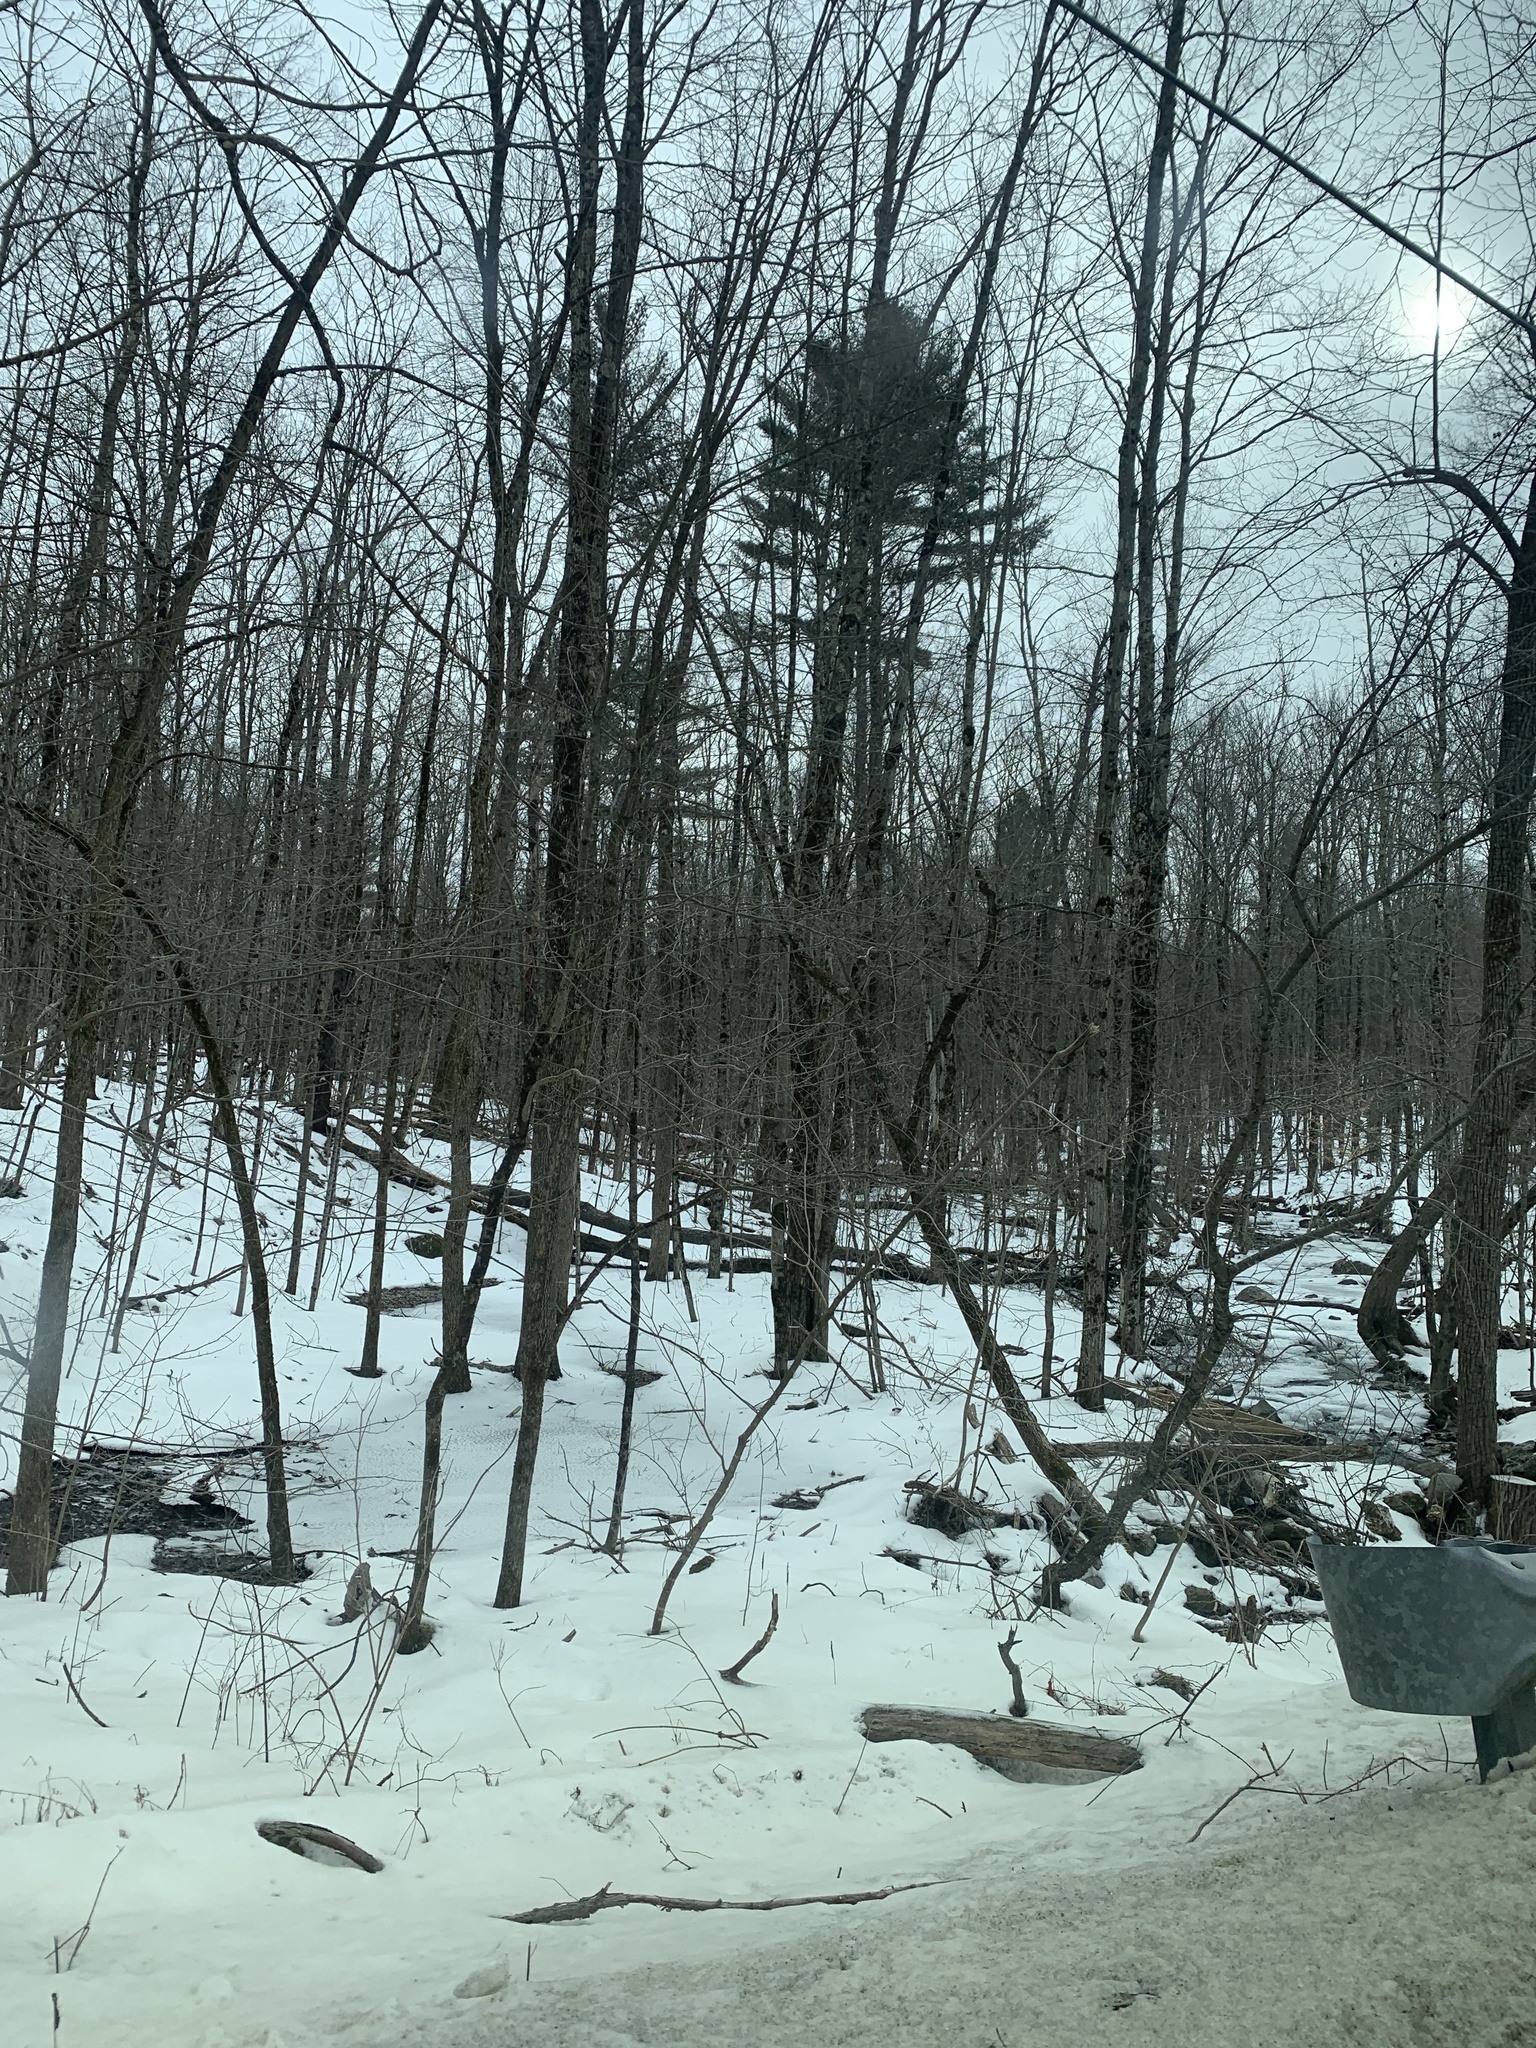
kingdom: Plantae
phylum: Tracheophyta
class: Pinopsida
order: Pinales
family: Pinaceae
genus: Pinus
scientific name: Pinus strobus
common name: Weymouth pine
